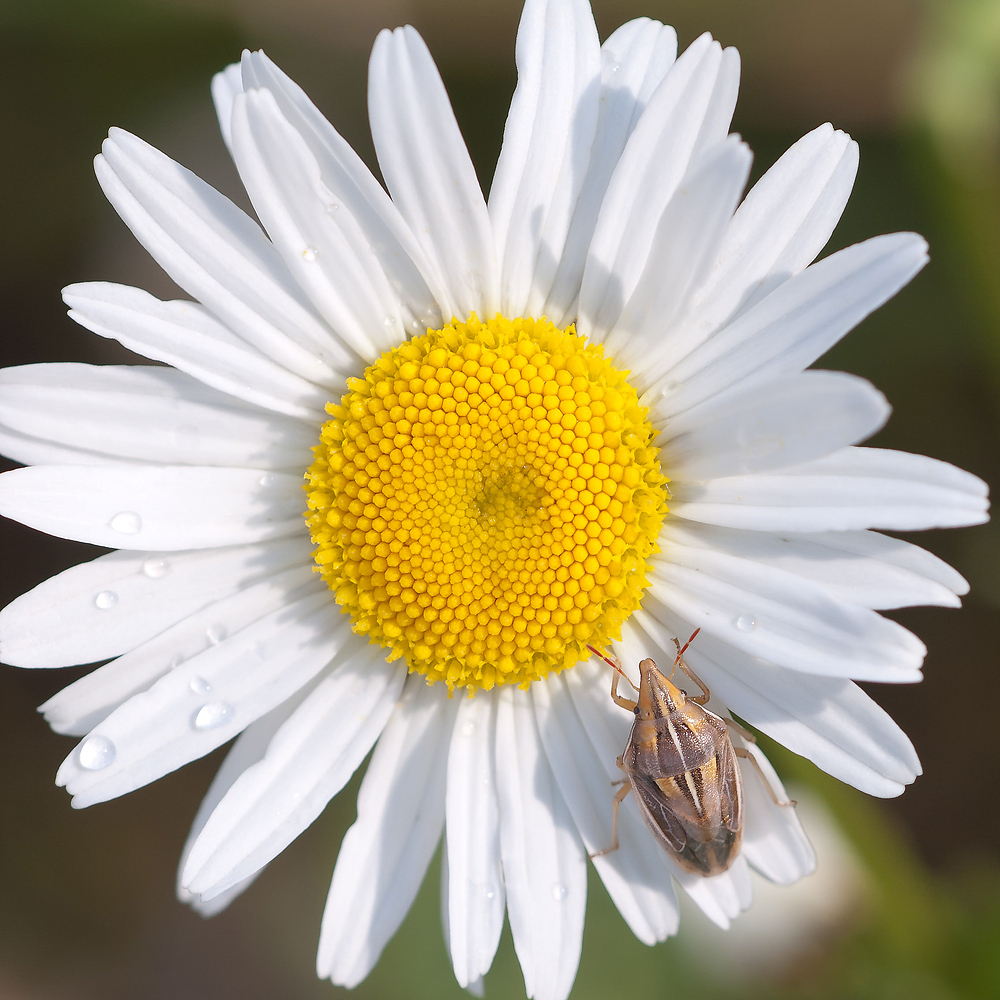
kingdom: Animalia
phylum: Arthropoda
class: Insecta
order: Hemiptera
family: Pentatomidae
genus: Aelia
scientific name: Aelia rostrata
